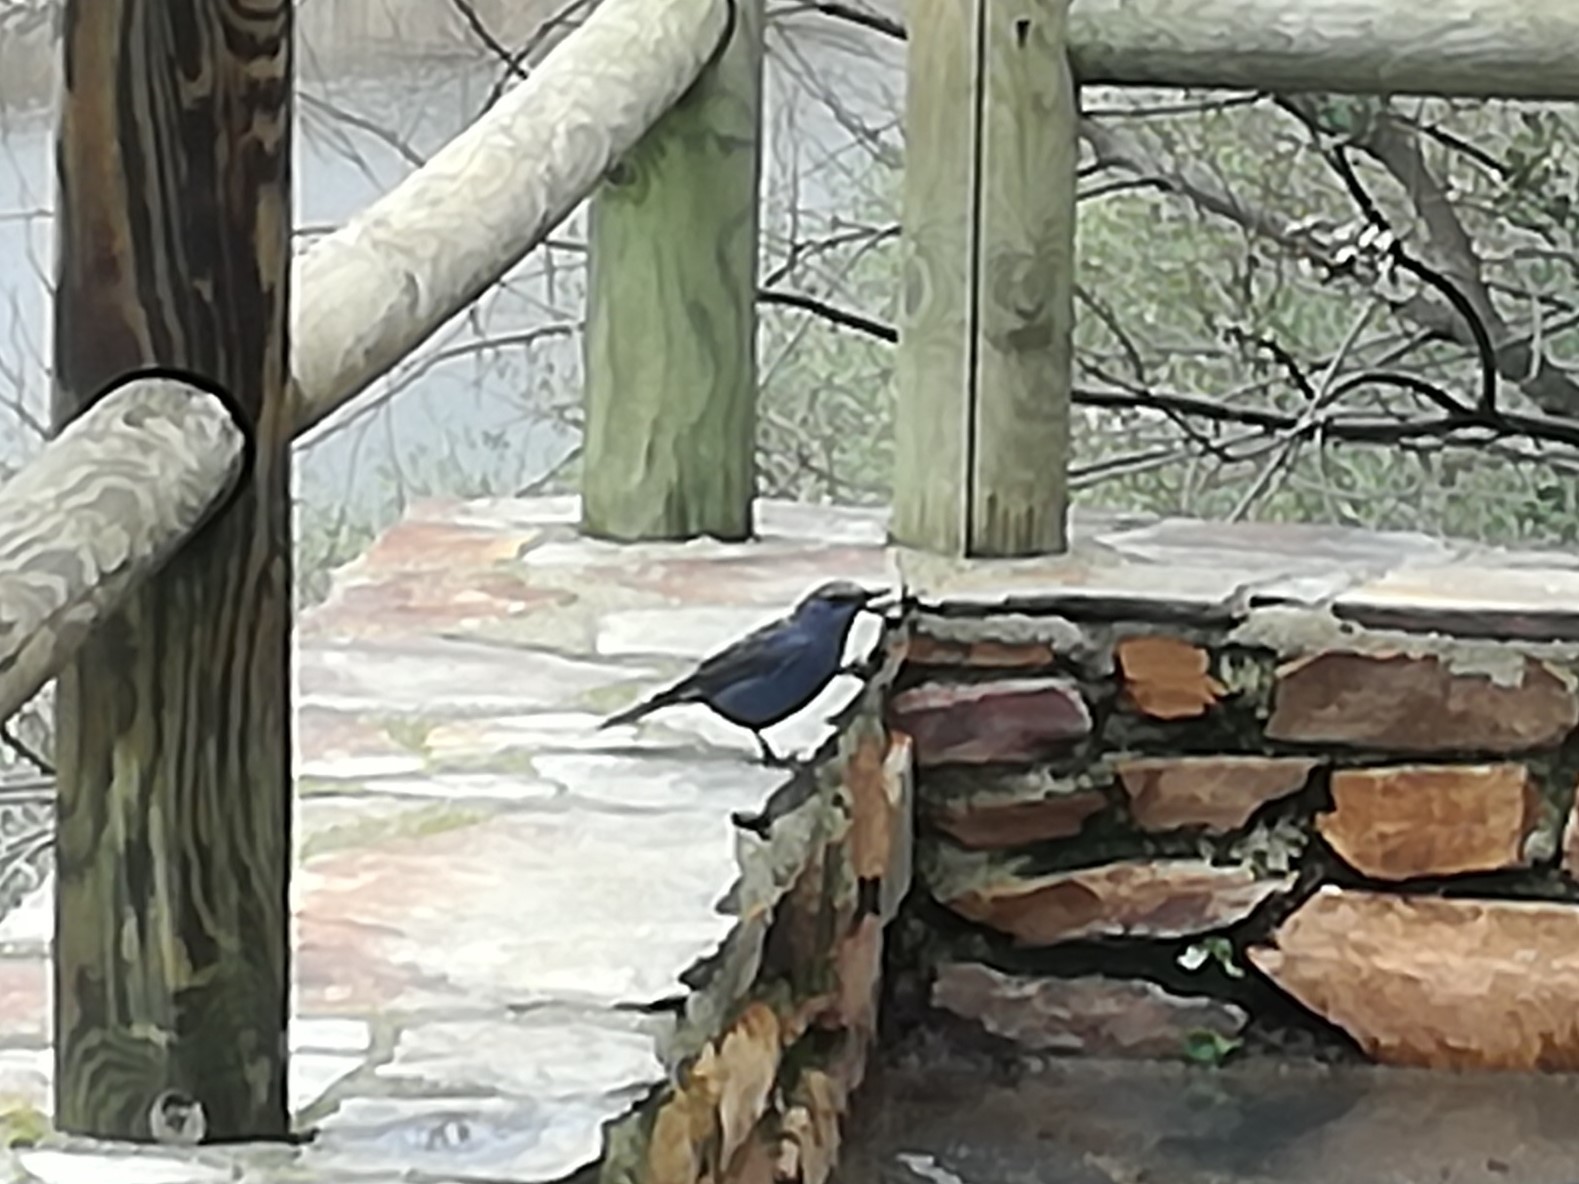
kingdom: Animalia
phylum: Chordata
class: Aves
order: Passeriformes
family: Muscicapidae
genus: Monticola
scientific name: Monticola solitarius
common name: Blue rock thrush
